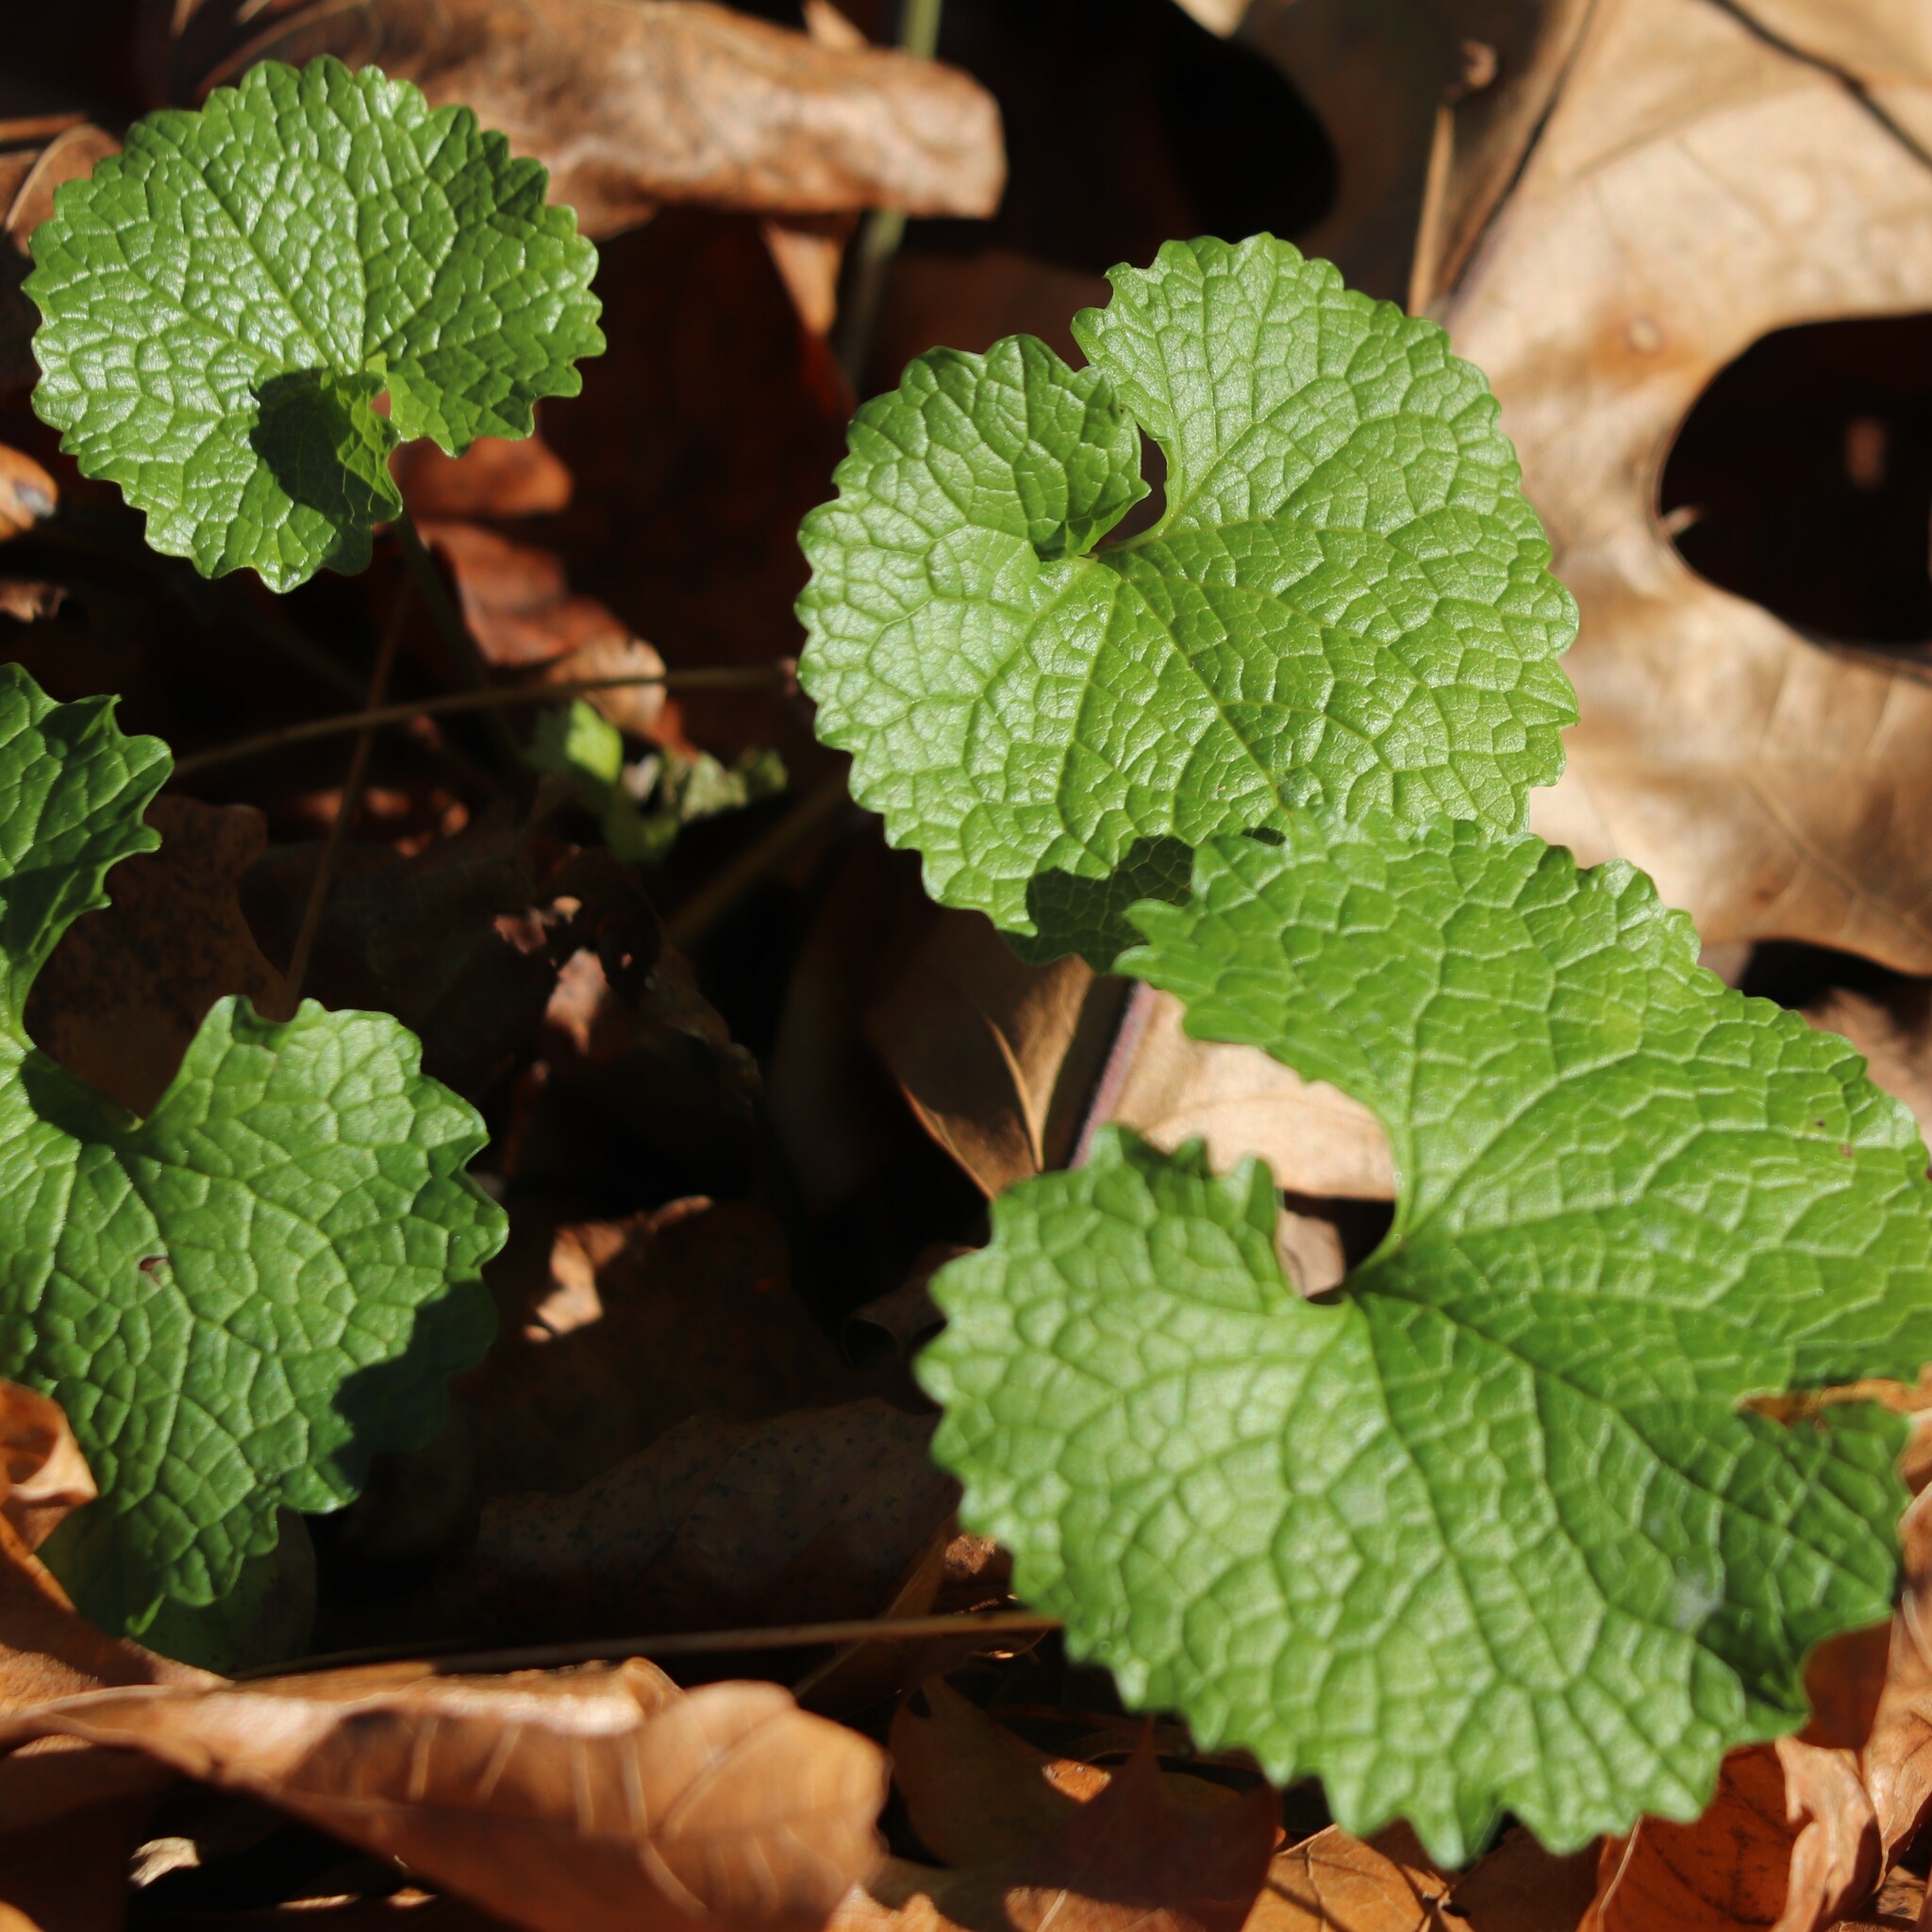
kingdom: Plantae
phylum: Tracheophyta
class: Magnoliopsida
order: Brassicales
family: Brassicaceae
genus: Alliaria
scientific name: Alliaria petiolata
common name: Garlic mustard
